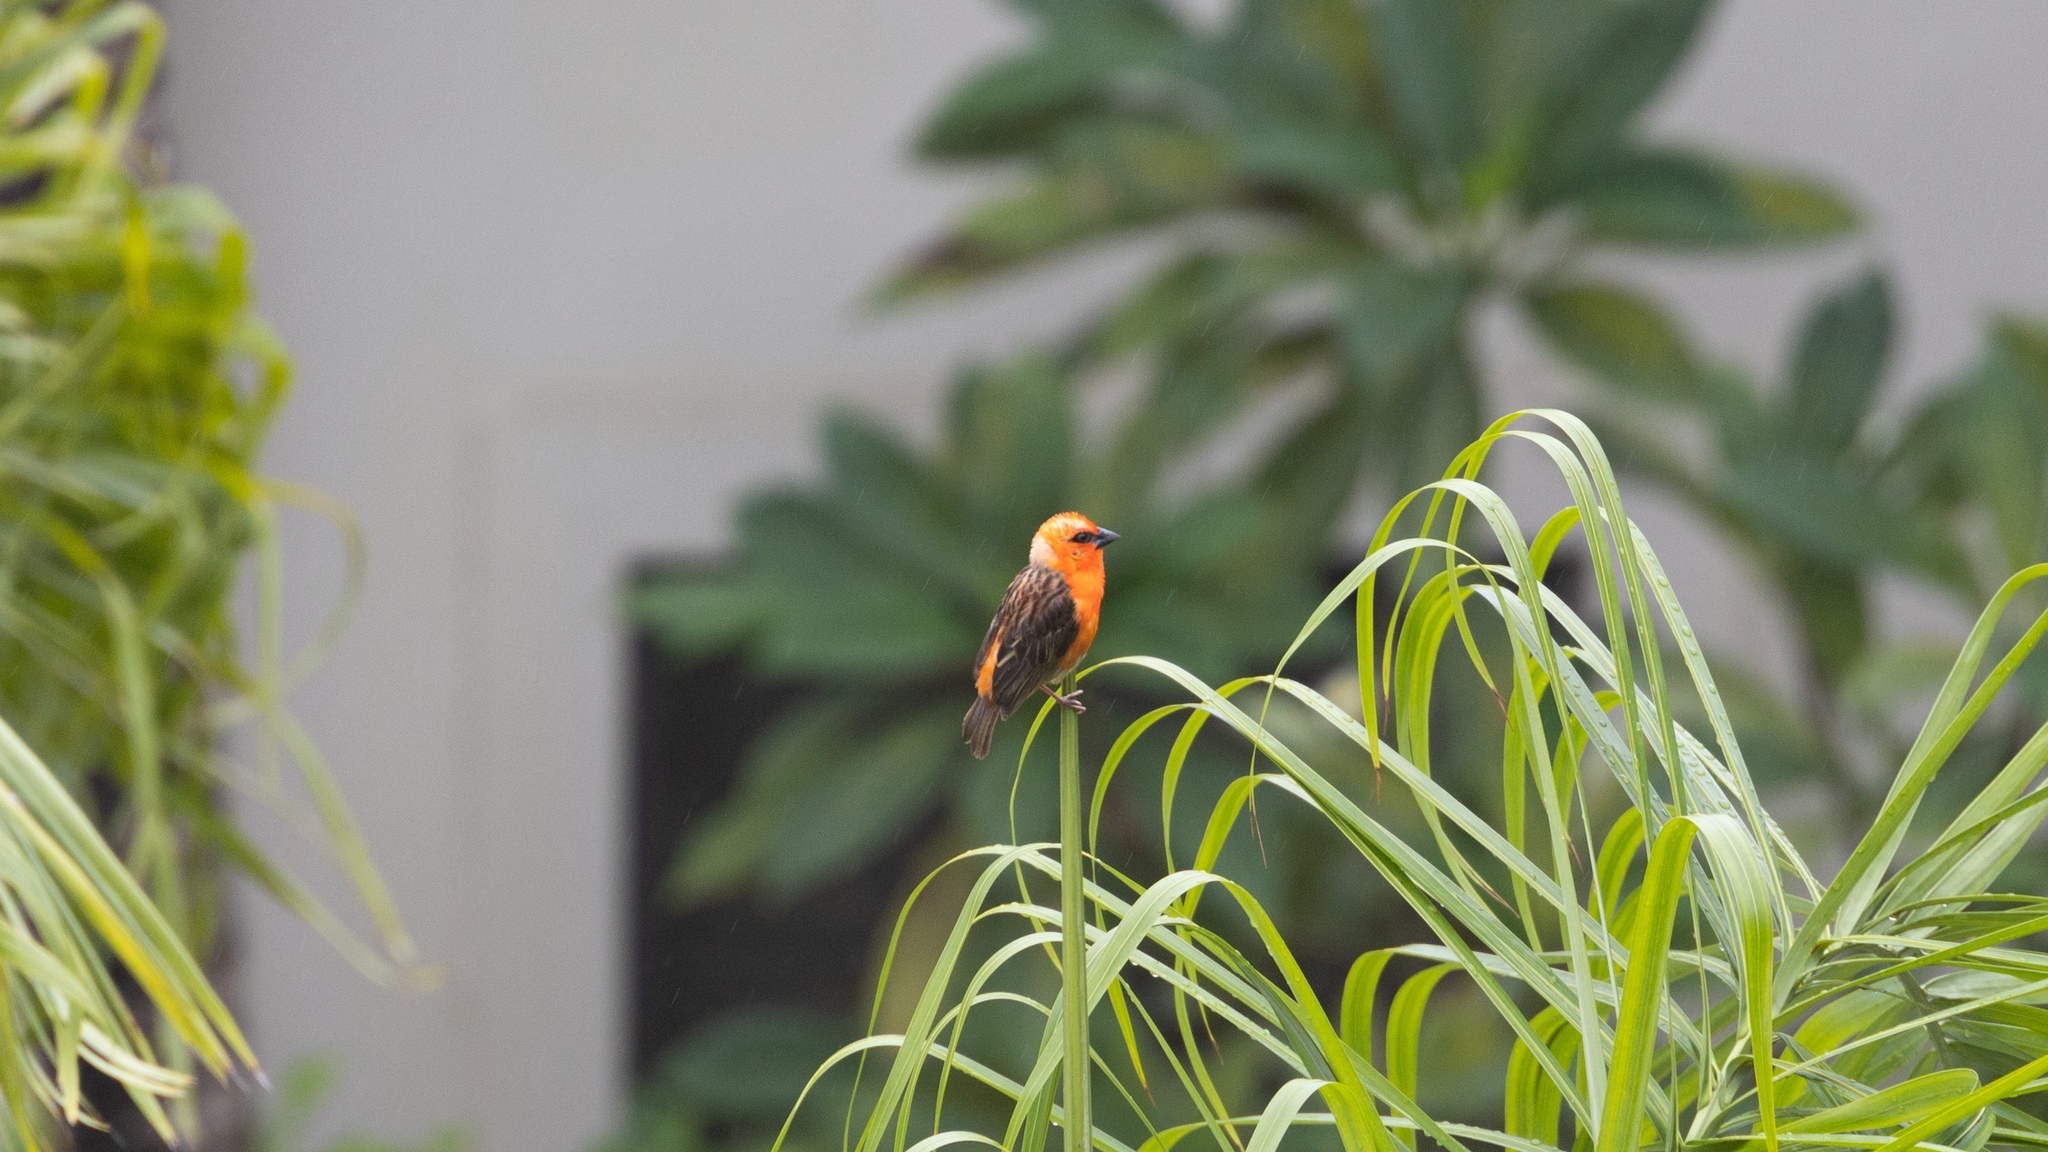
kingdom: Animalia
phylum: Chordata
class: Aves
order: Passeriformes
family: Ploceidae
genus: Foudia
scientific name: Foudia madagascariensis
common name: Red fody
